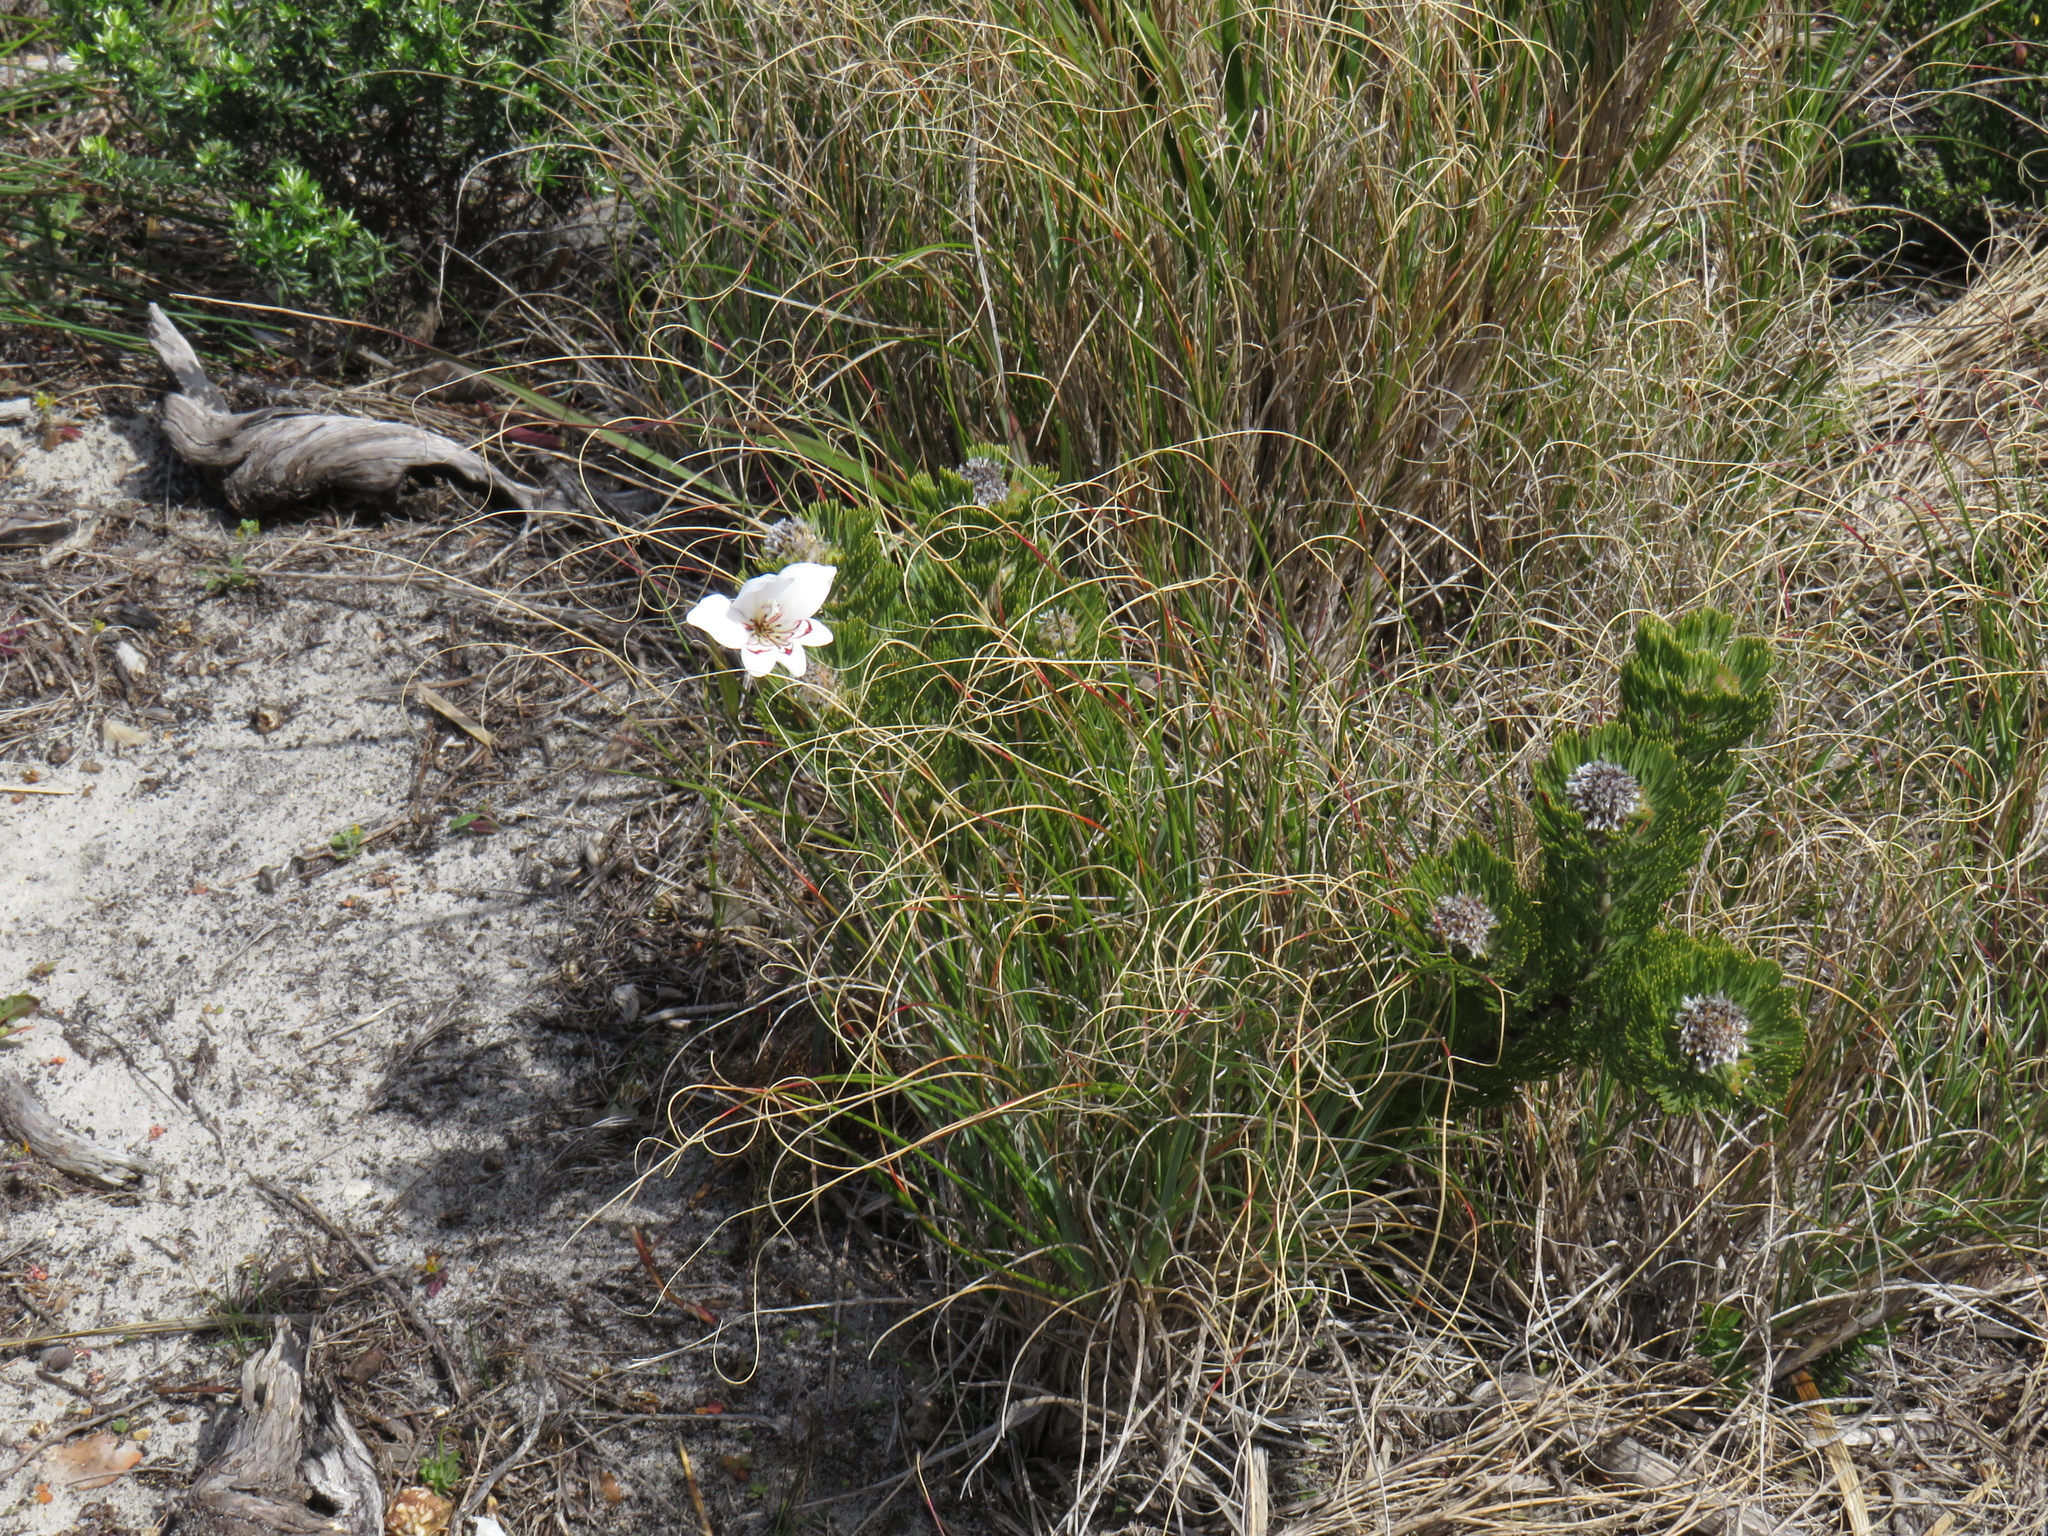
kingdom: Plantae
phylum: Tracheophyta
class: Liliopsida
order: Asparagales
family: Iridaceae
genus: Gladiolus
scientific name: Gladiolus debilis
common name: Painted-lady
